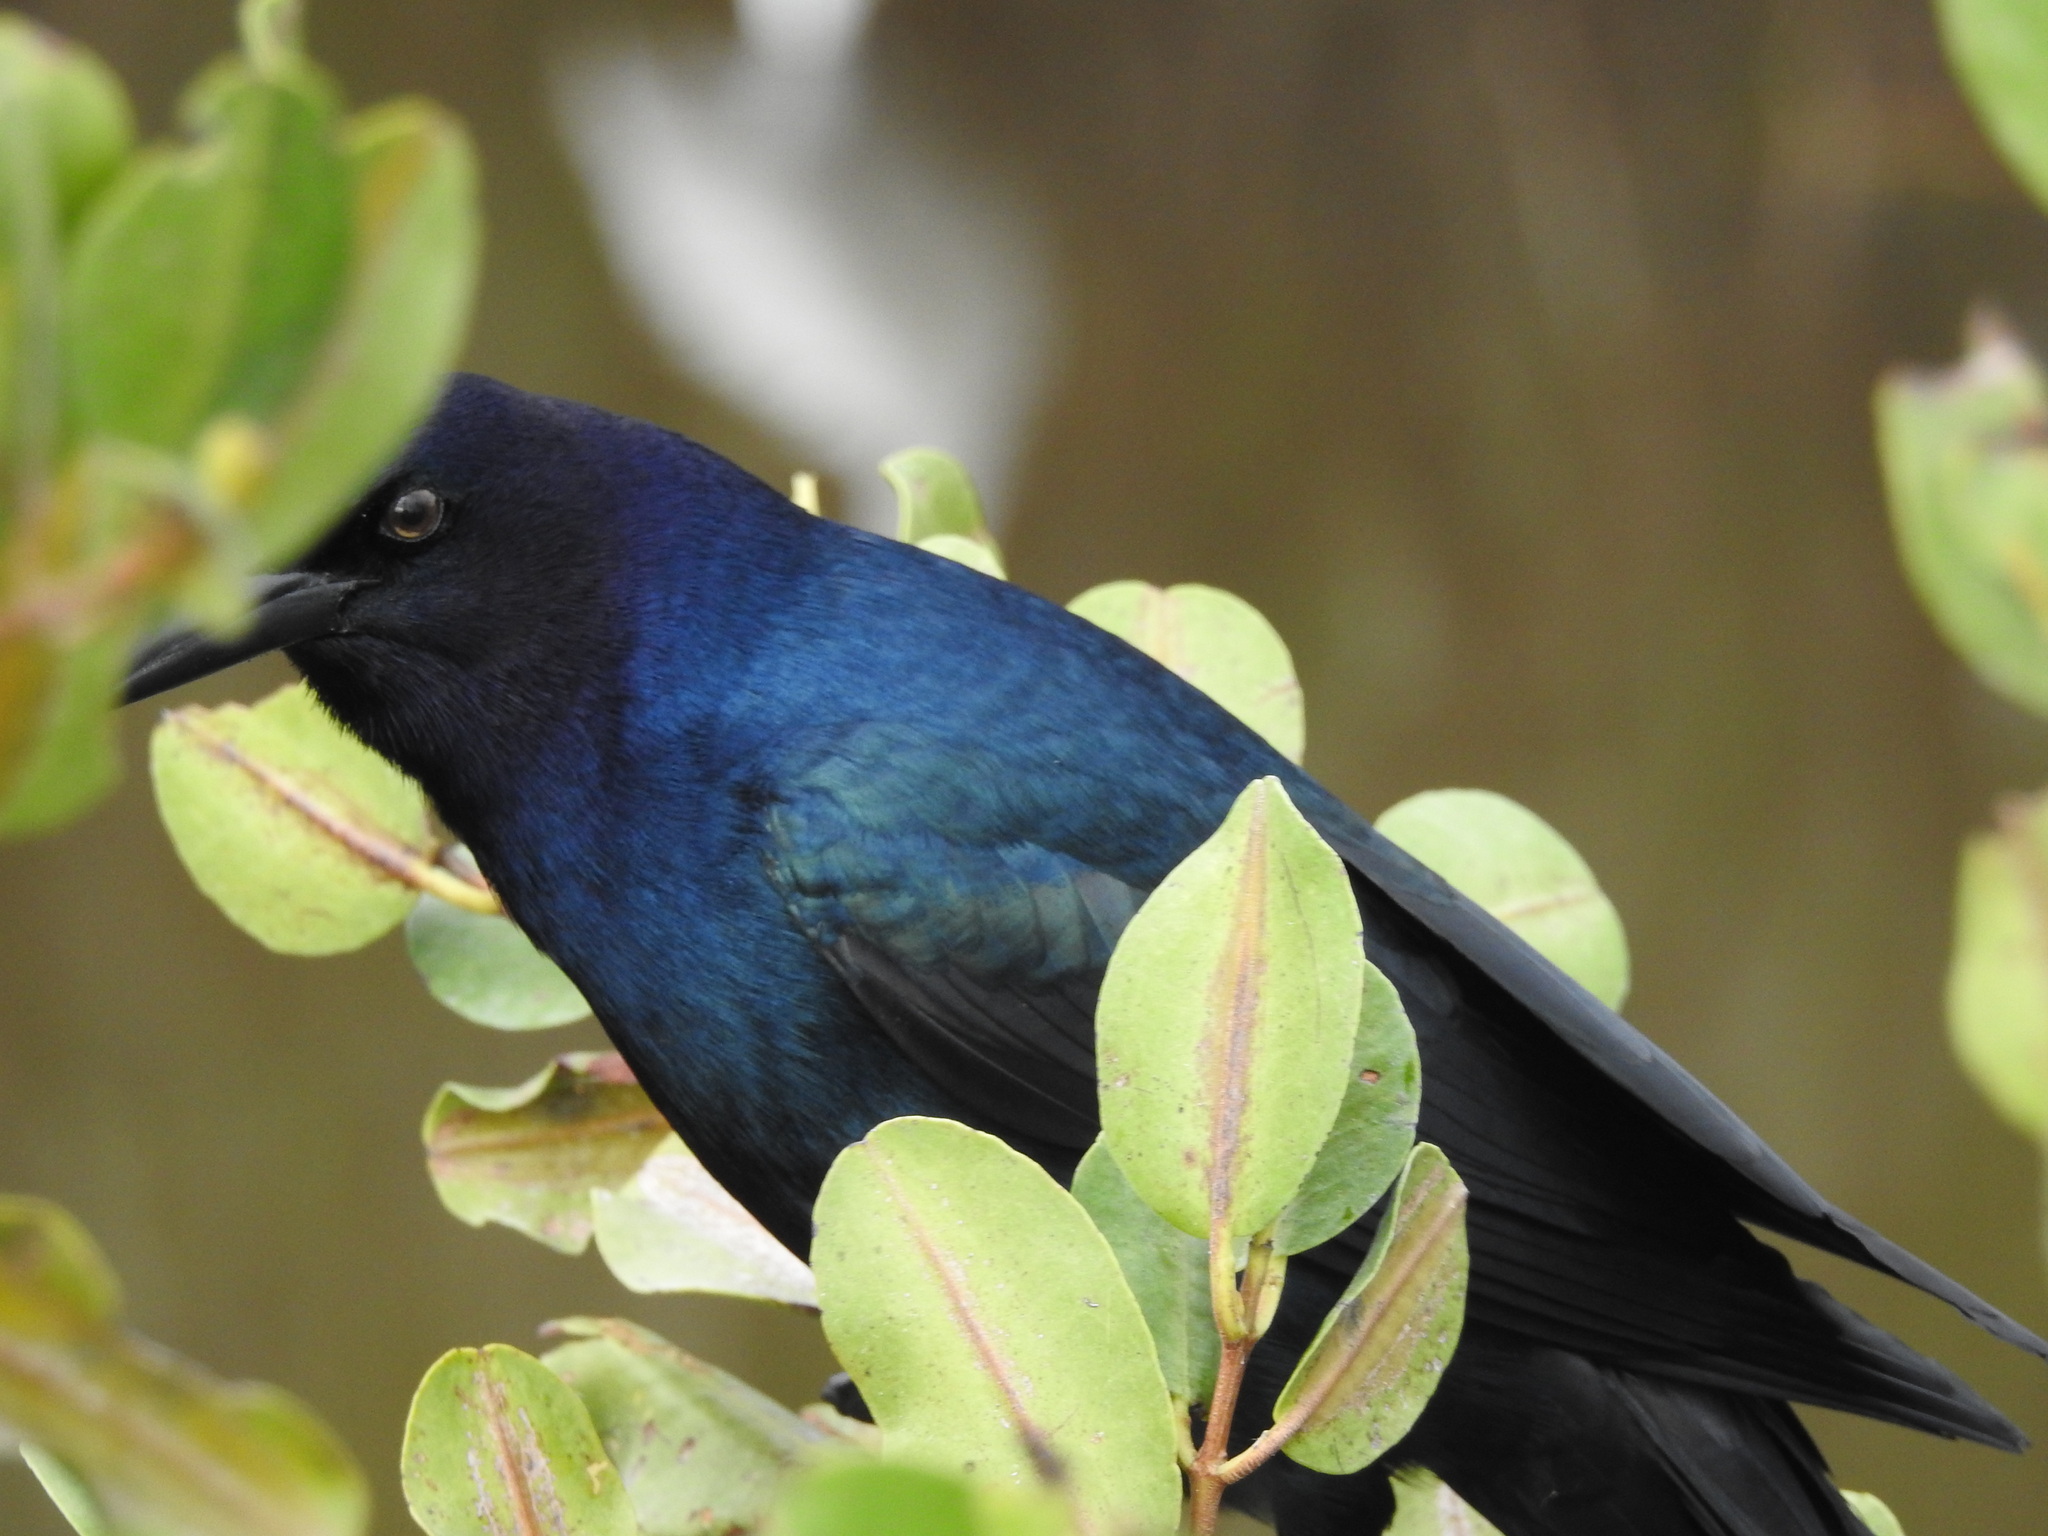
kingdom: Animalia
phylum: Chordata
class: Aves
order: Passeriformes
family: Icteridae
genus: Quiscalus
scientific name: Quiscalus major
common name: Boat-tailed grackle
